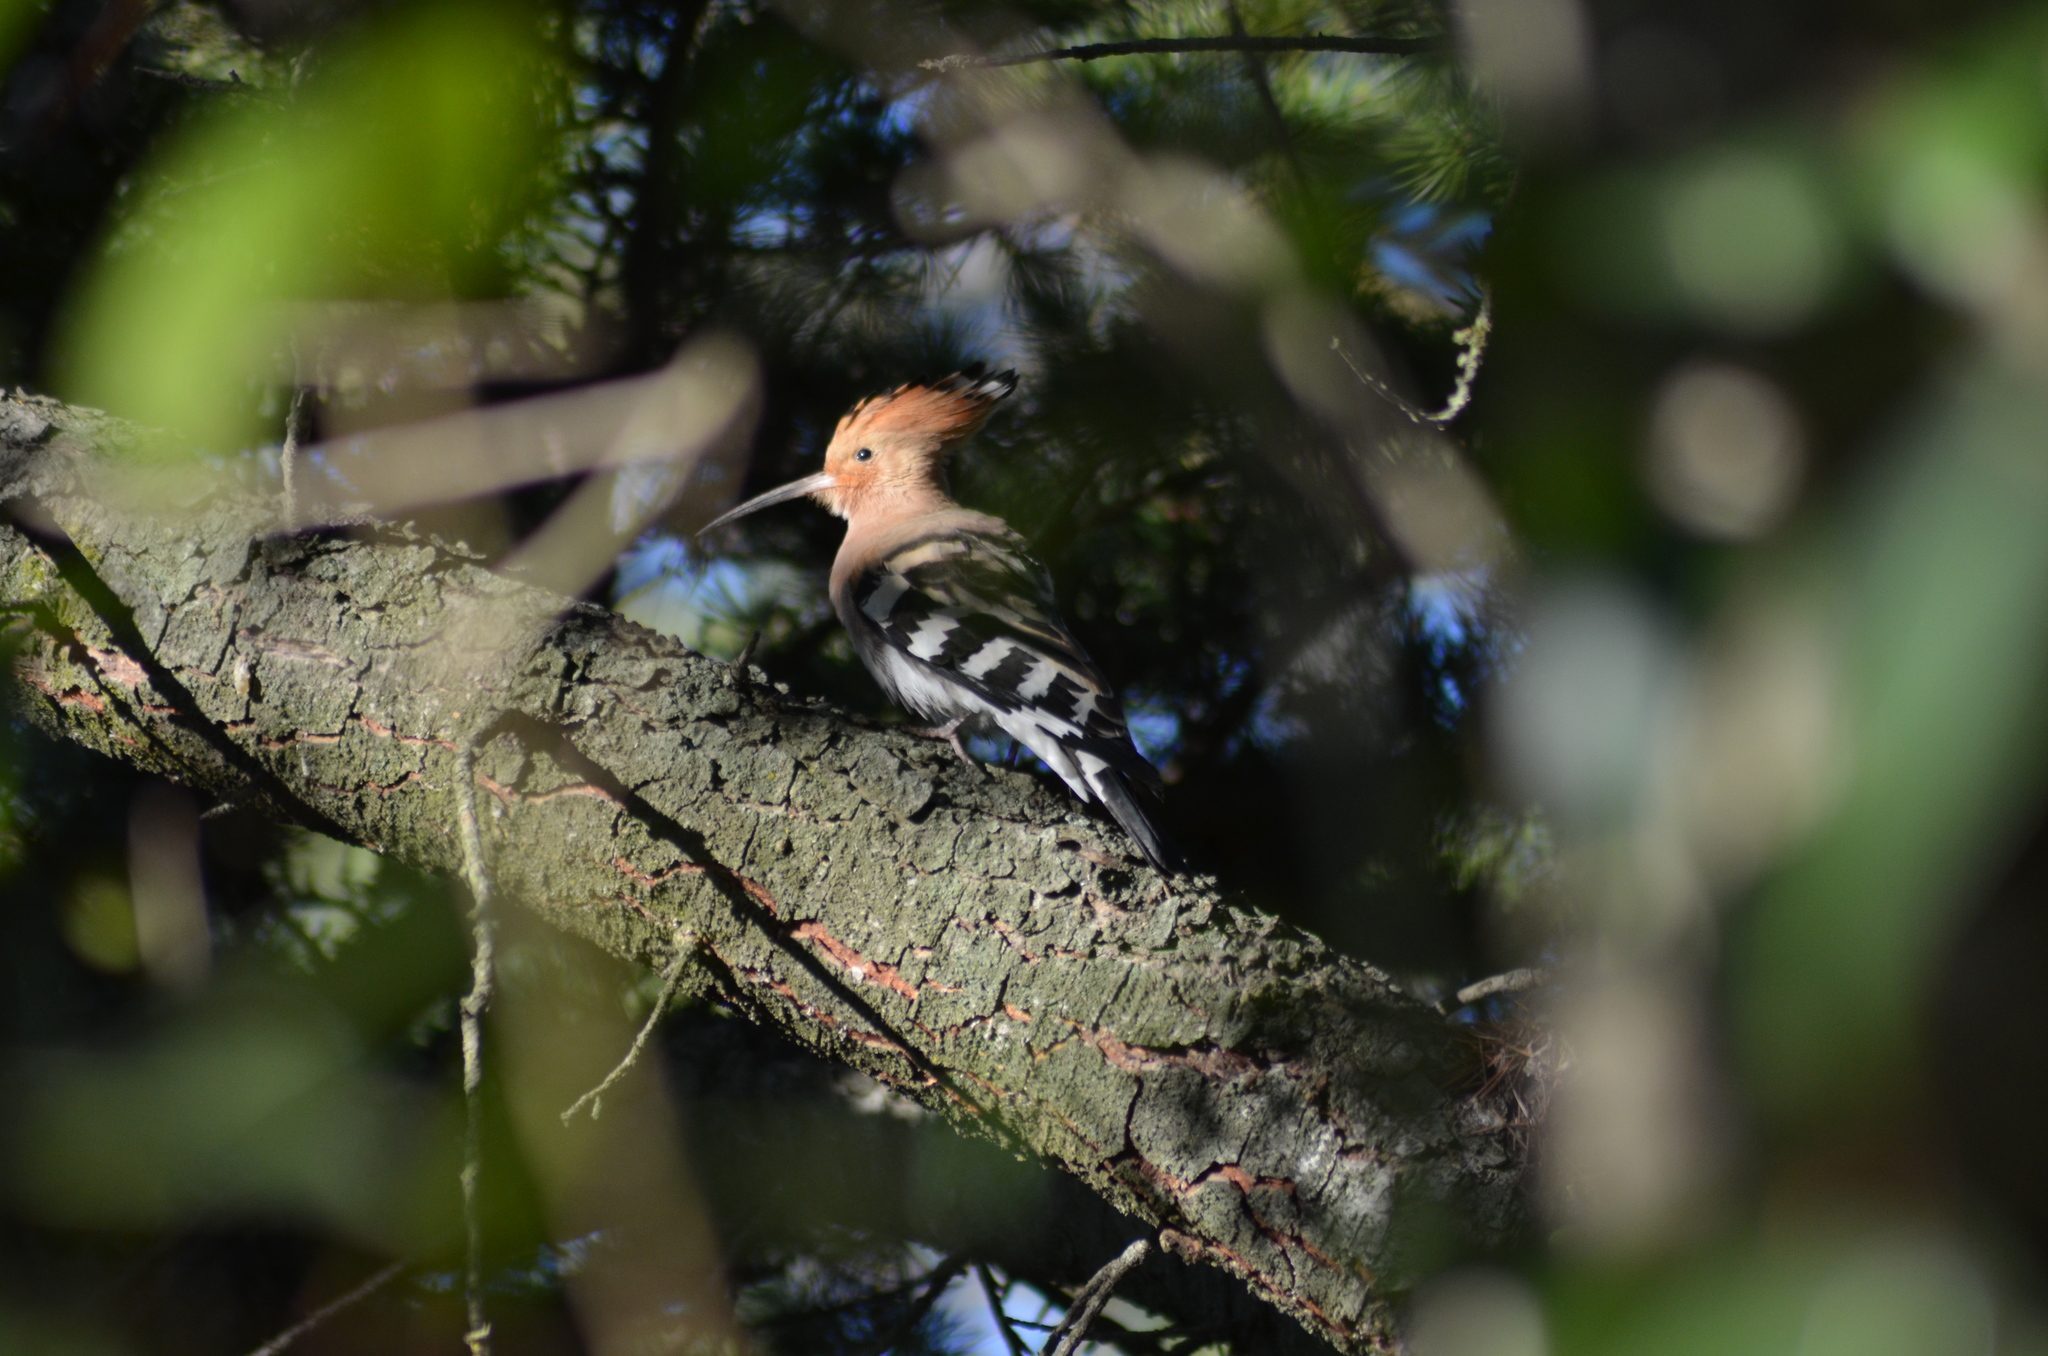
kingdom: Animalia
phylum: Chordata
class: Aves
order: Bucerotiformes
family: Upupidae
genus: Upupa
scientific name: Upupa epops
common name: Eurasian hoopoe
